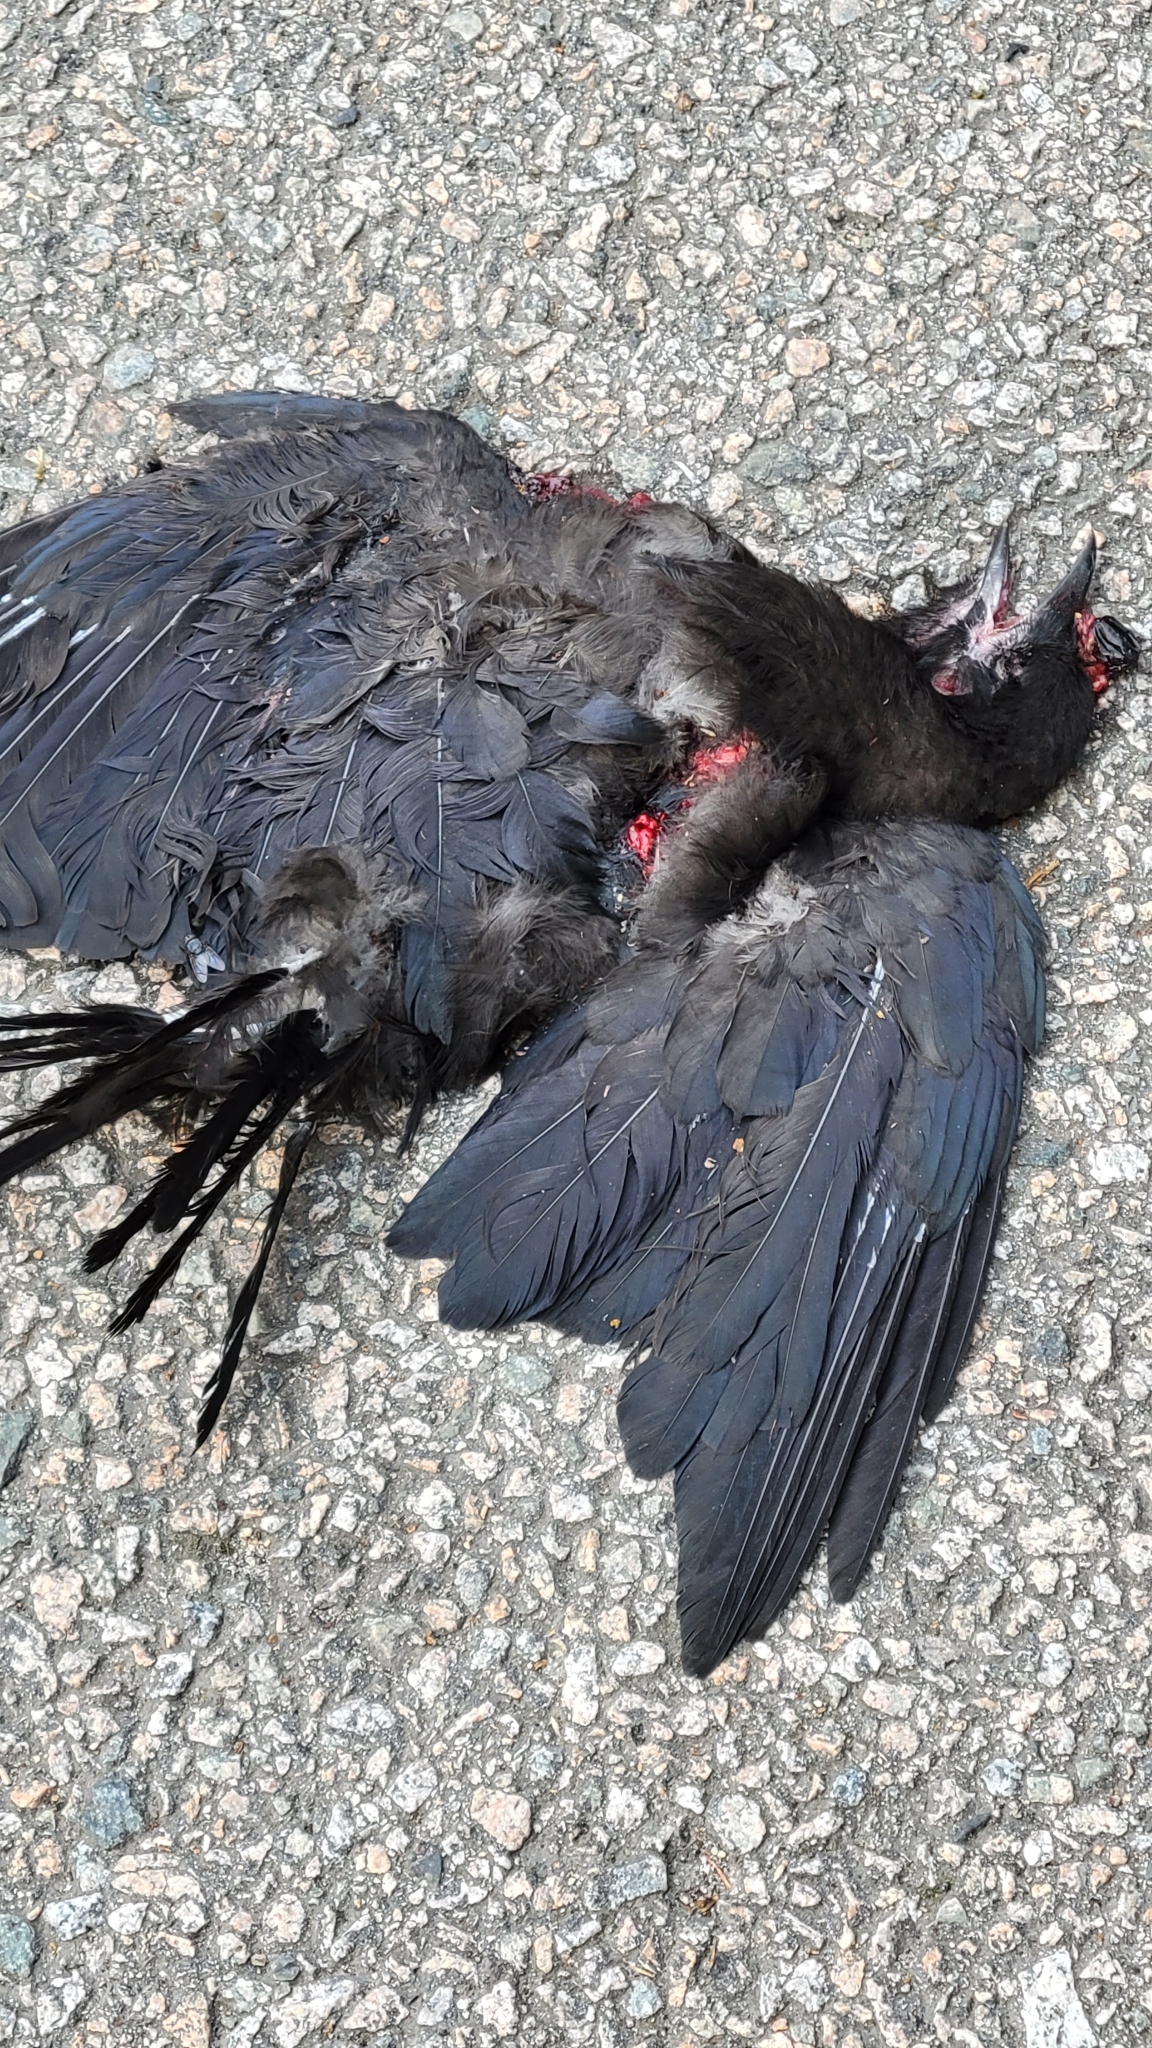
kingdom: Animalia
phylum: Chordata
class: Aves
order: Passeriformes
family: Corvidae
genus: Corvus
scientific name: Corvus brachyrhynchos
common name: American crow
